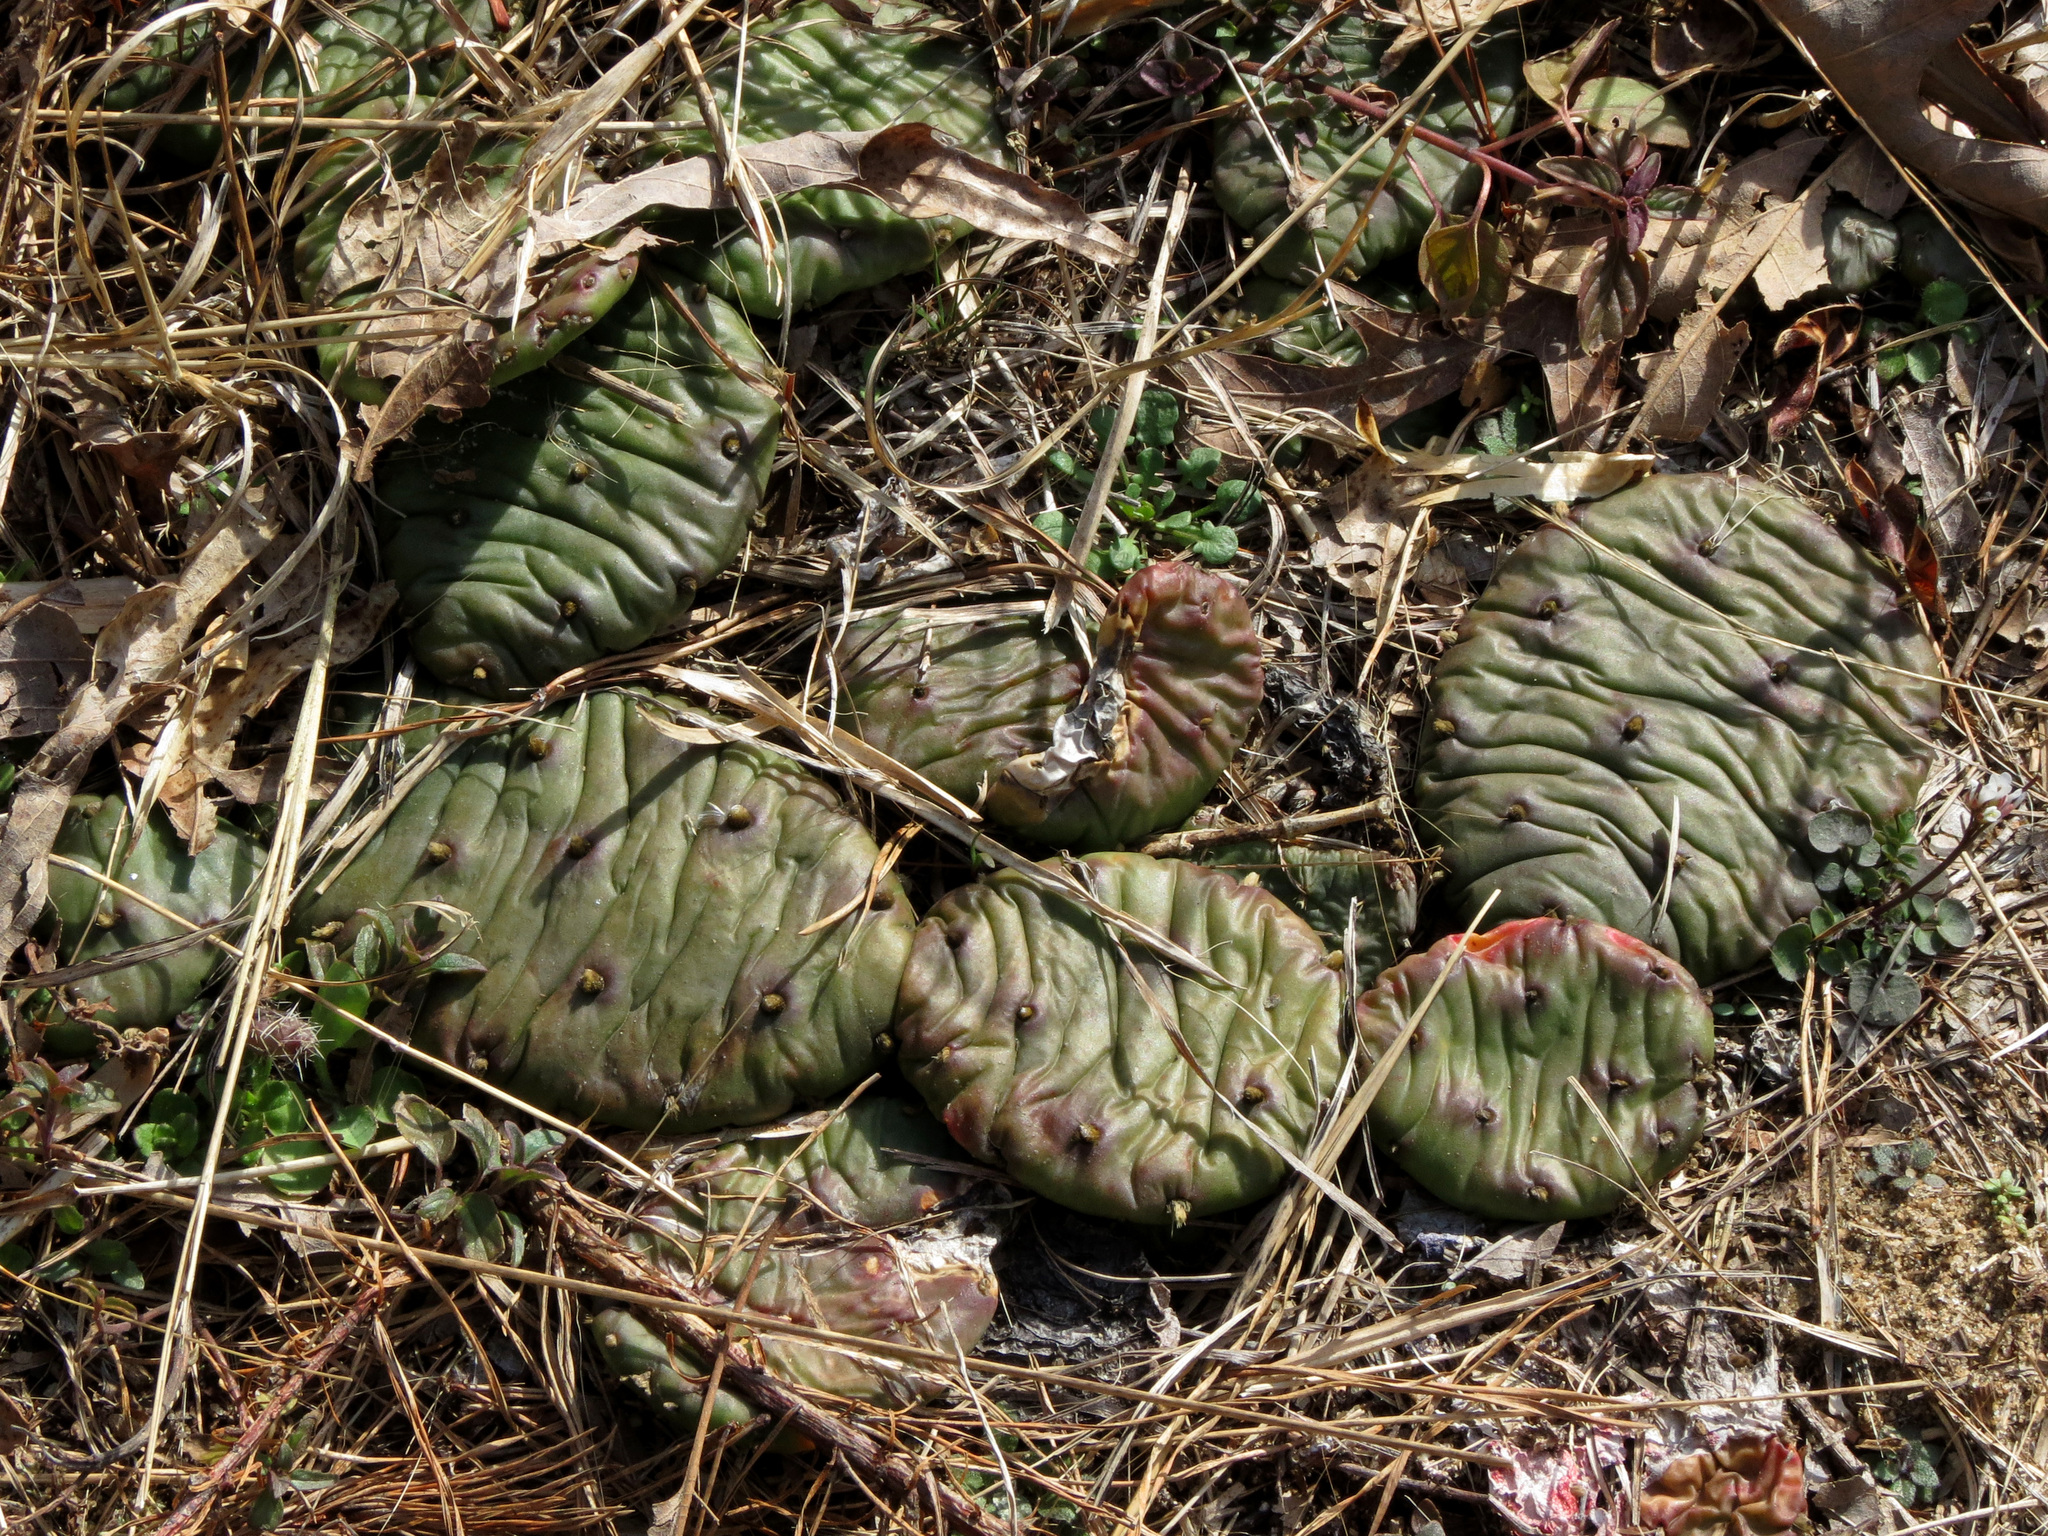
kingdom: Plantae
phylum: Tracheophyta
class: Magnoliopsida
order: Caryophyllales
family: Cactaceae
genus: Opuntia
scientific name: Opuntia humifusa
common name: Eastern prickly-pear
